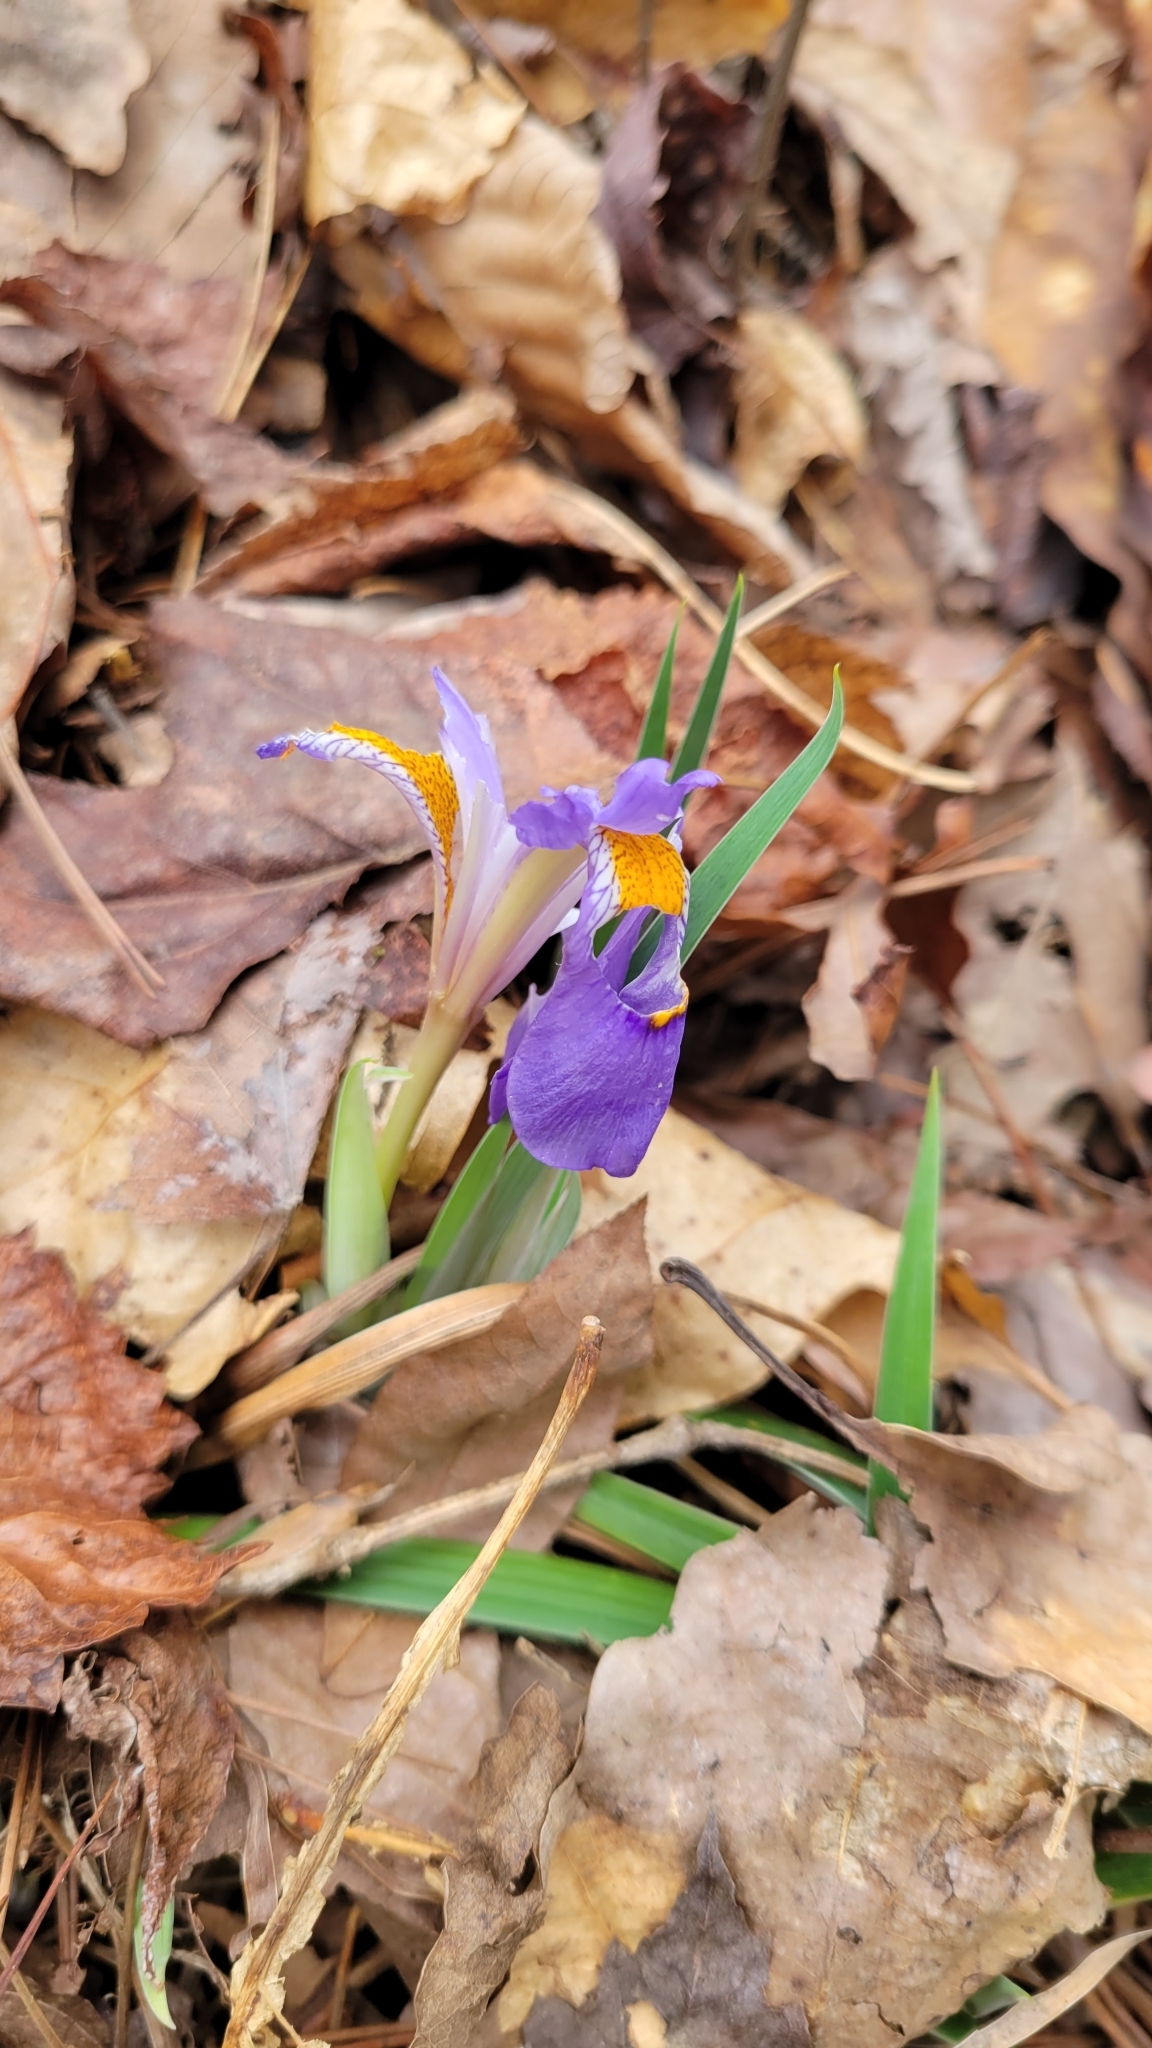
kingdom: Plantae
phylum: Tracheophyta
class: Liliopsida
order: Asparagales
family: Iridaceae
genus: Iris
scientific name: Iris verna
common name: Dwarf iris
